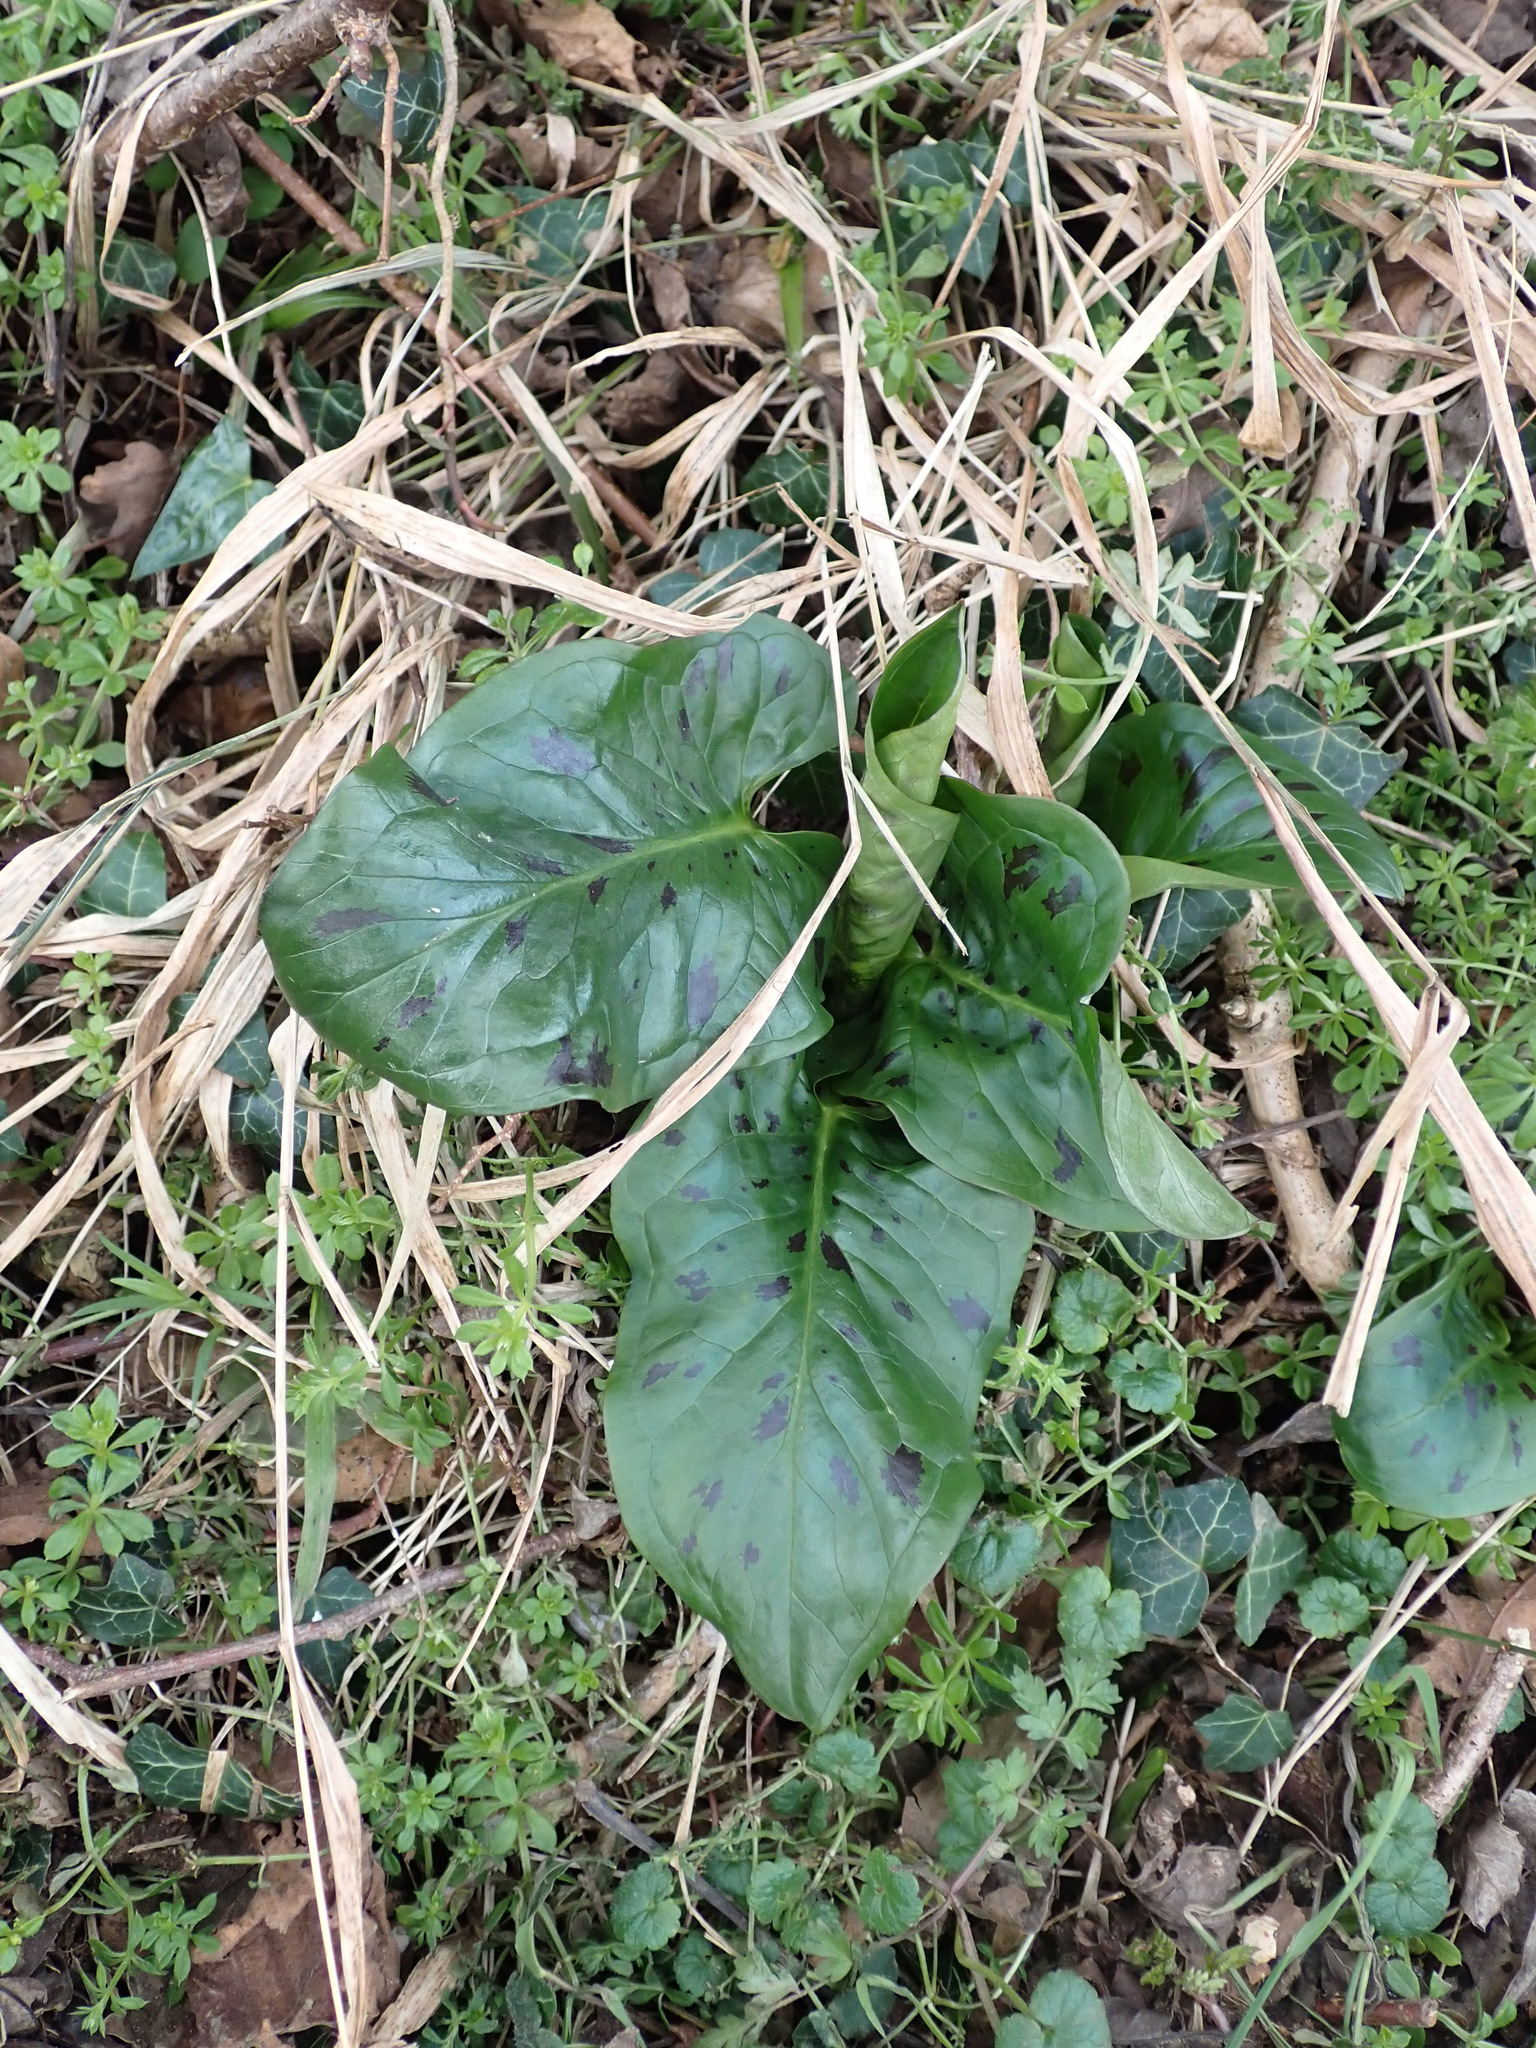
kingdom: Plantae
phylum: Tracheophyta
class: Liliopsida
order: Alismatales
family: Araceae
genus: Arum
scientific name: Arum maculatum
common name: Lords-and-ladies
